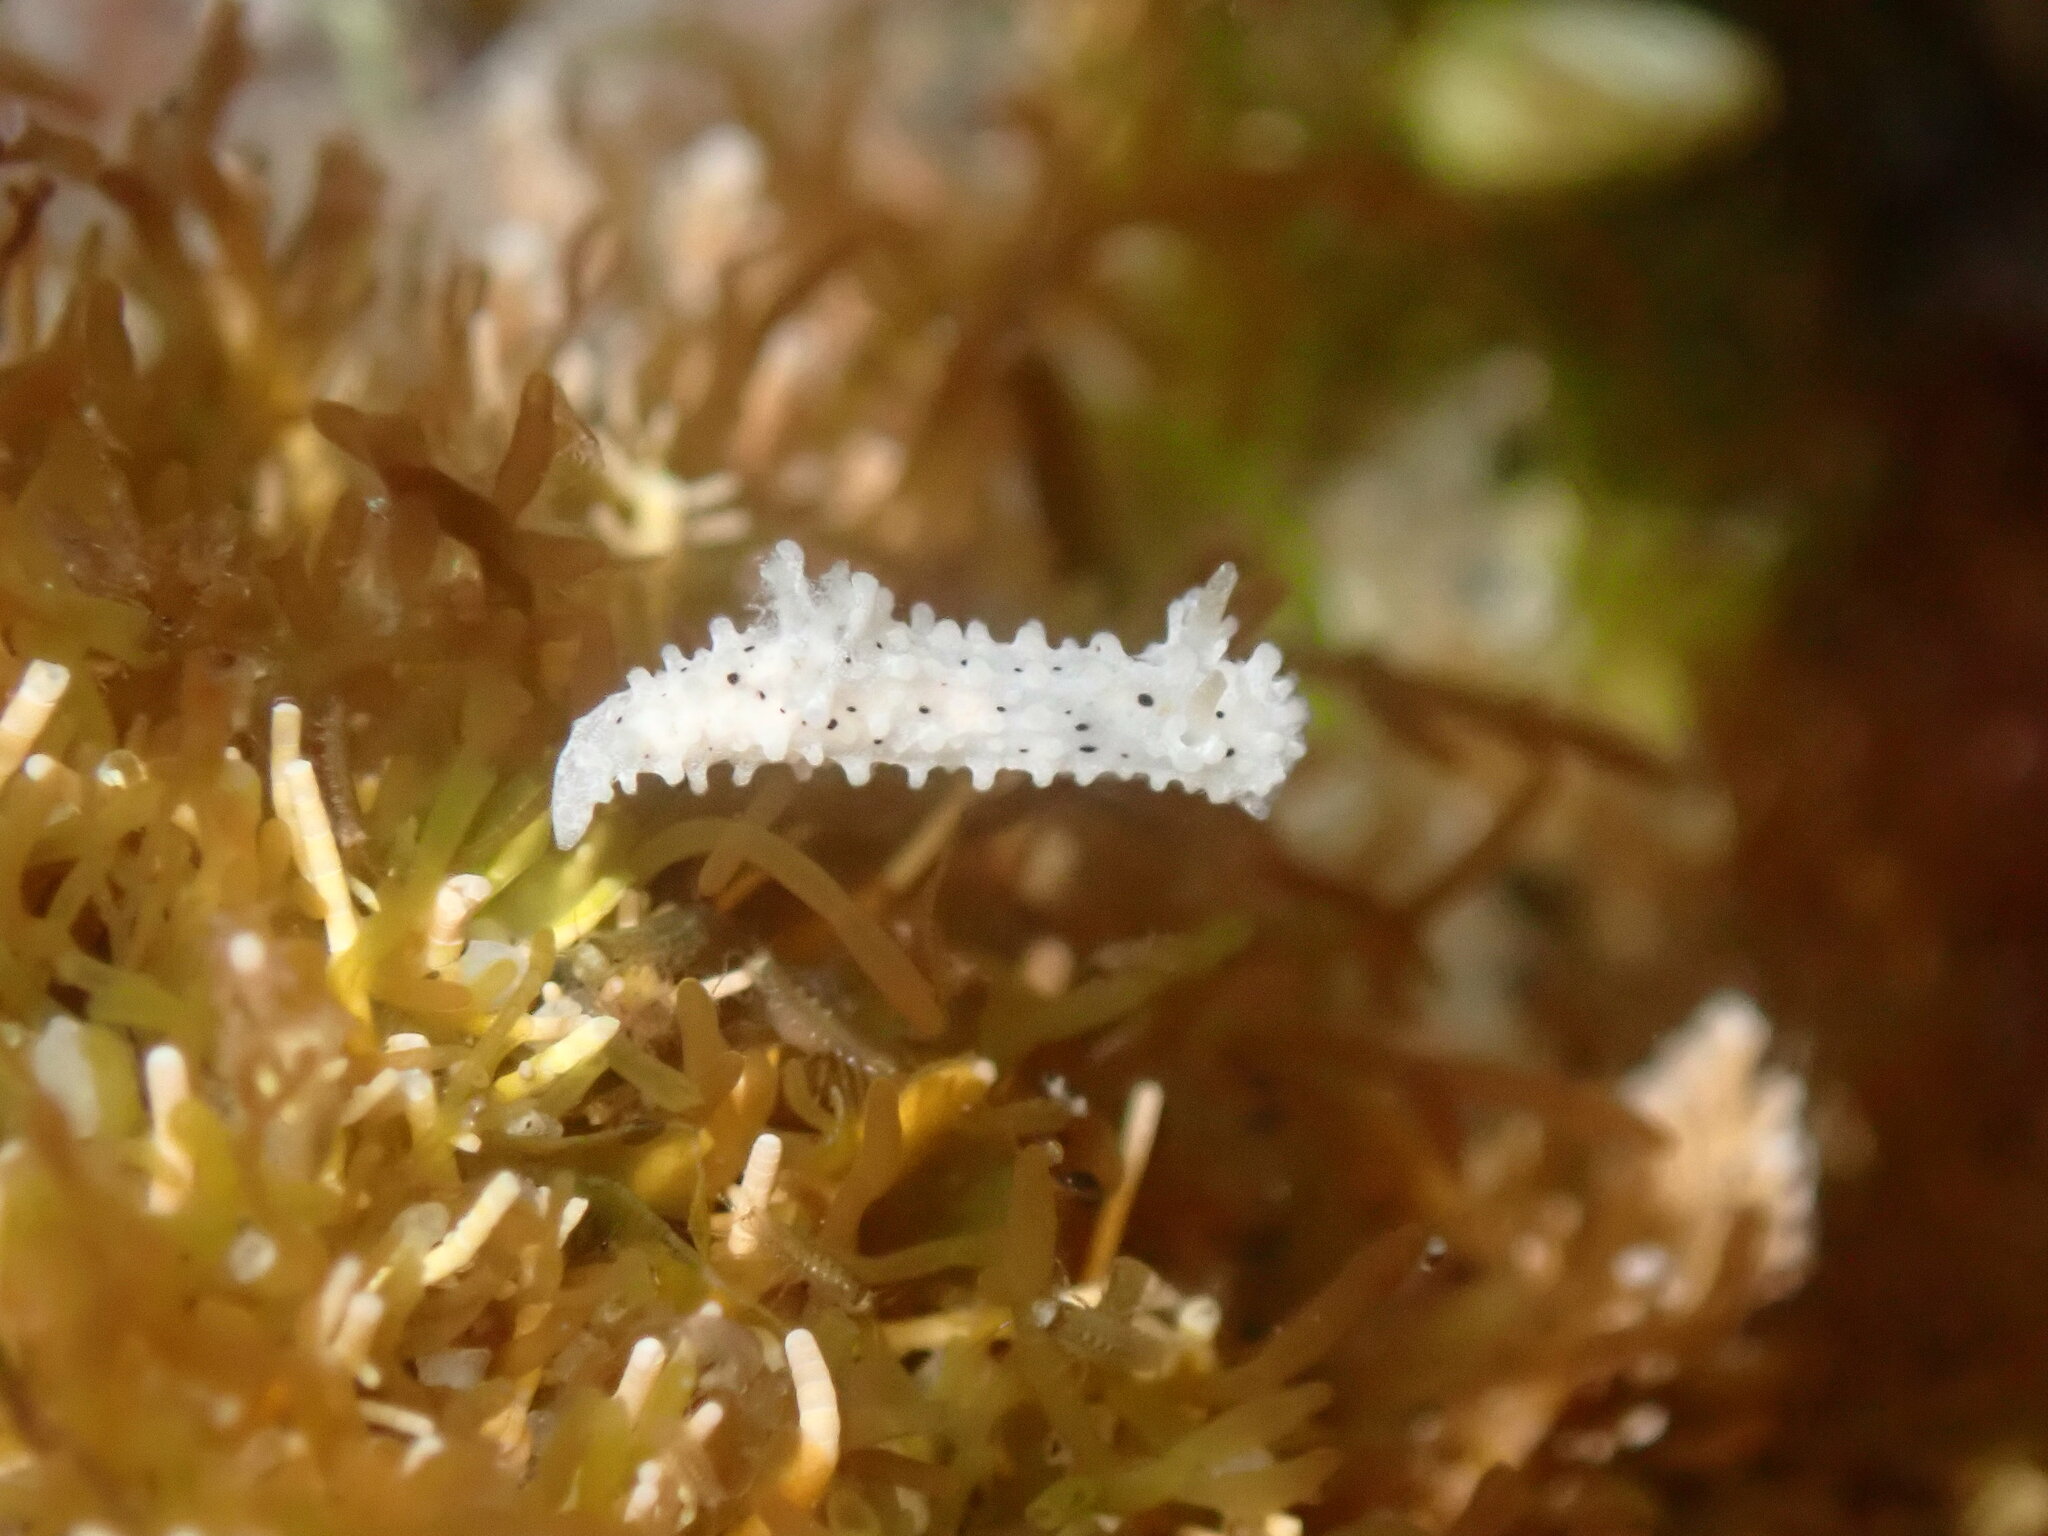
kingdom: Animalia
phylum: Mollusca
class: Gastropoda
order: Nudibranchia
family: Aegiridae
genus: Aegires
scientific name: Aegires albopunctatus
